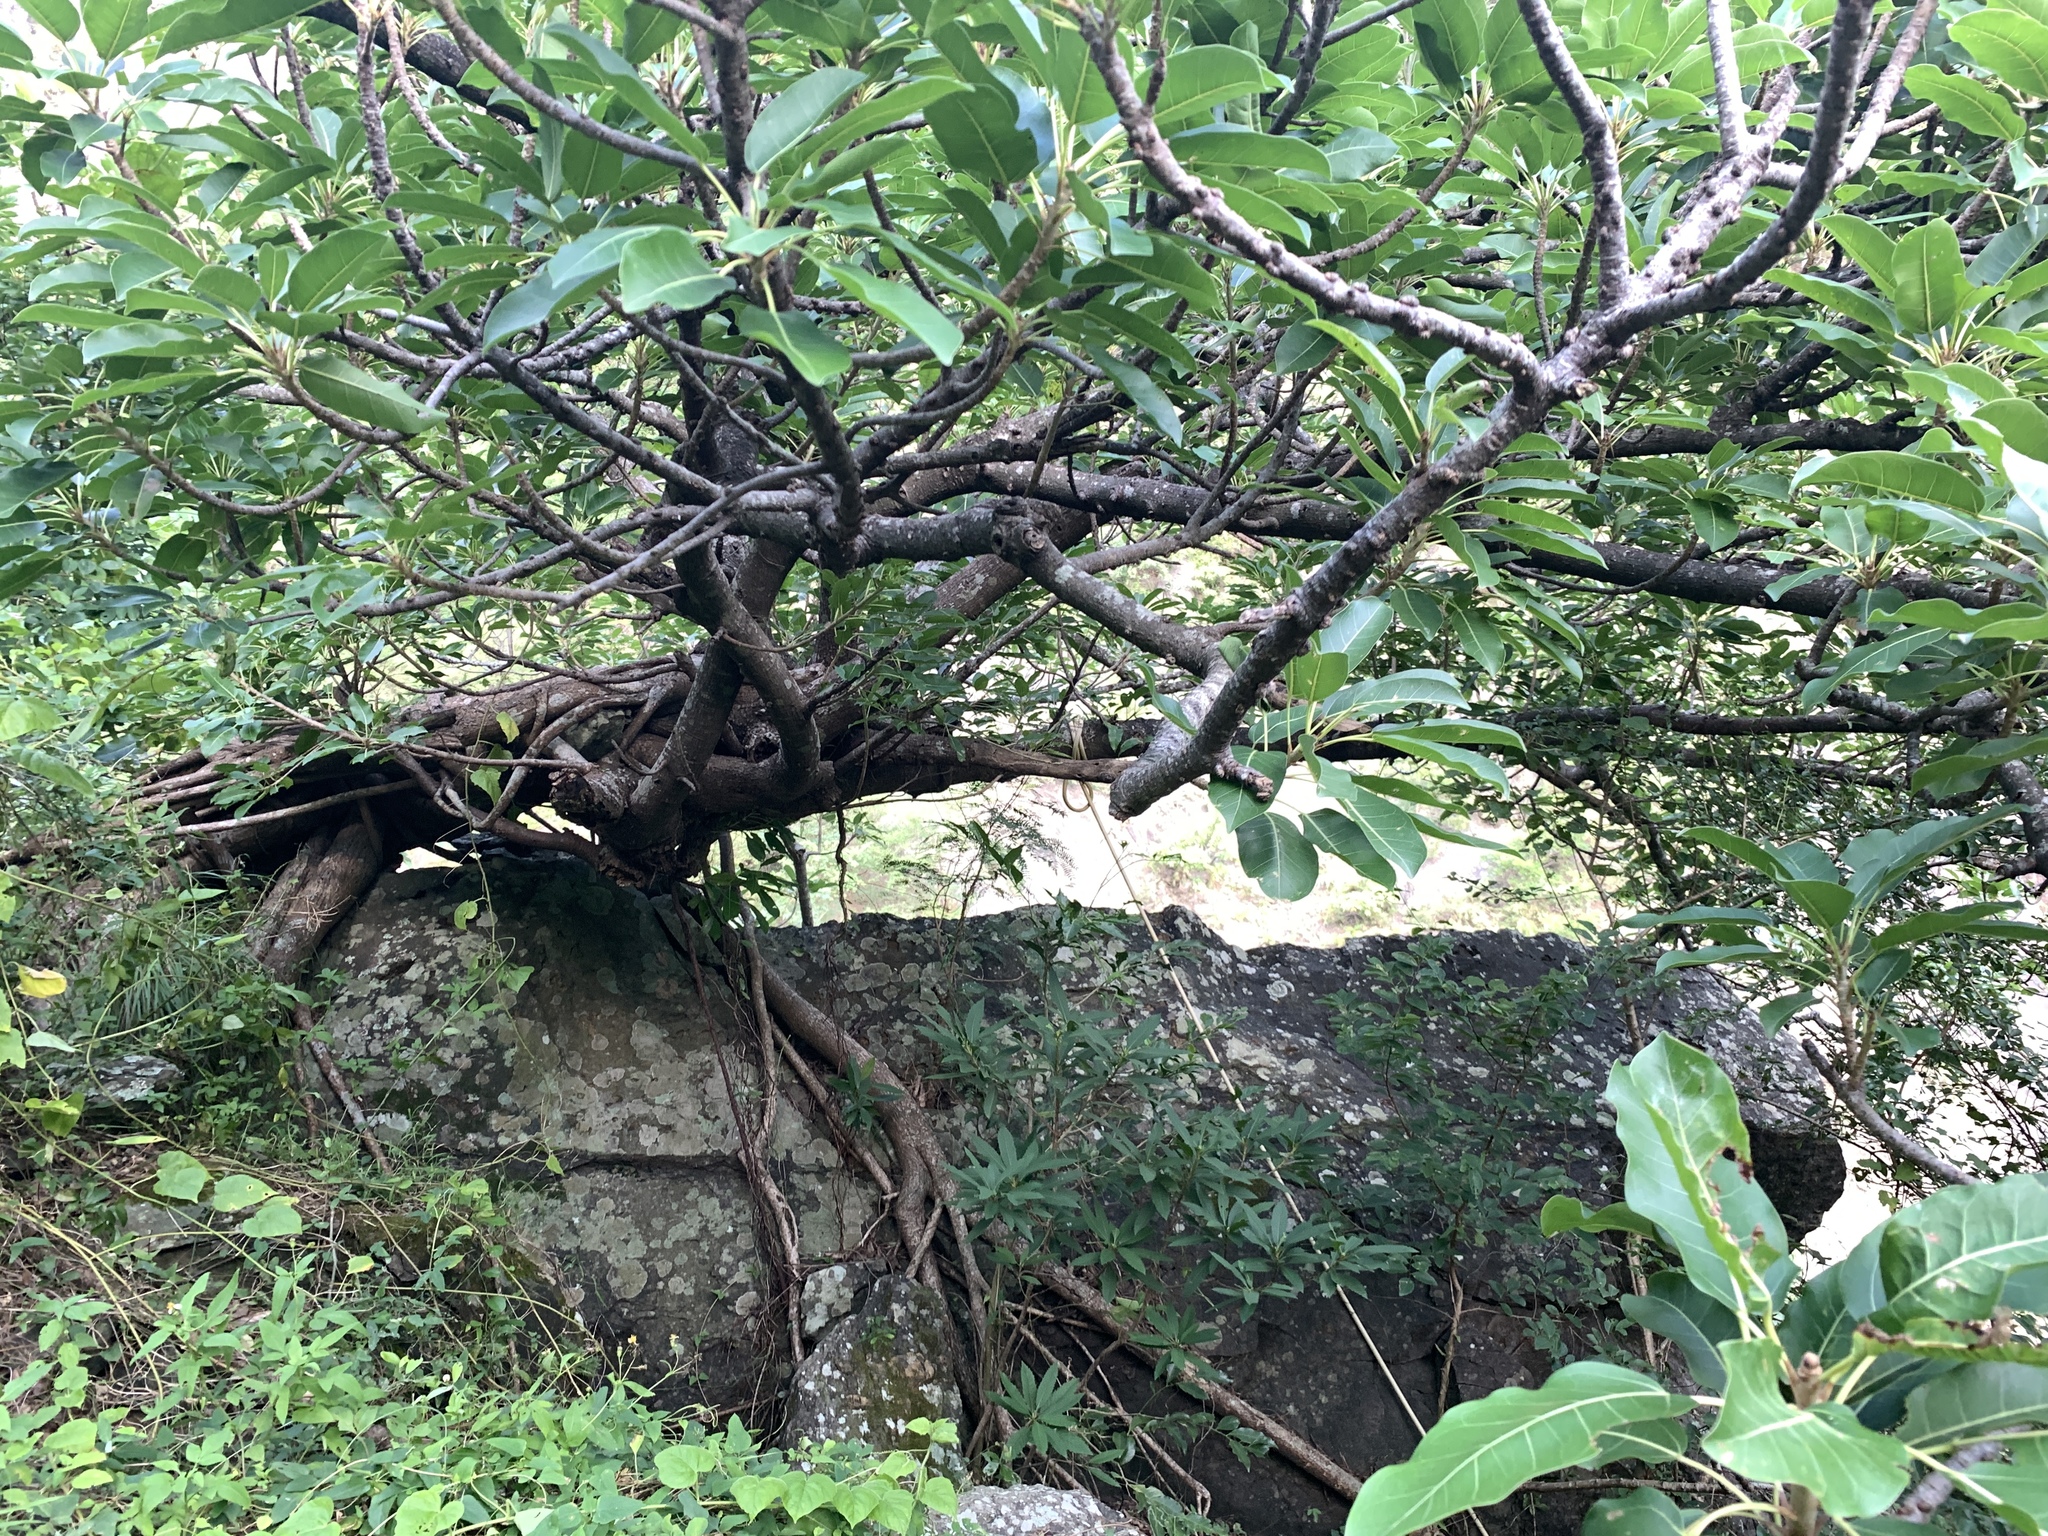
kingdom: Plantae
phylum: Tracheophyta
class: Magnoliopsida
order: Rosales
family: Moraceae
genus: Ficus
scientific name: Ficus subpisocarpa
